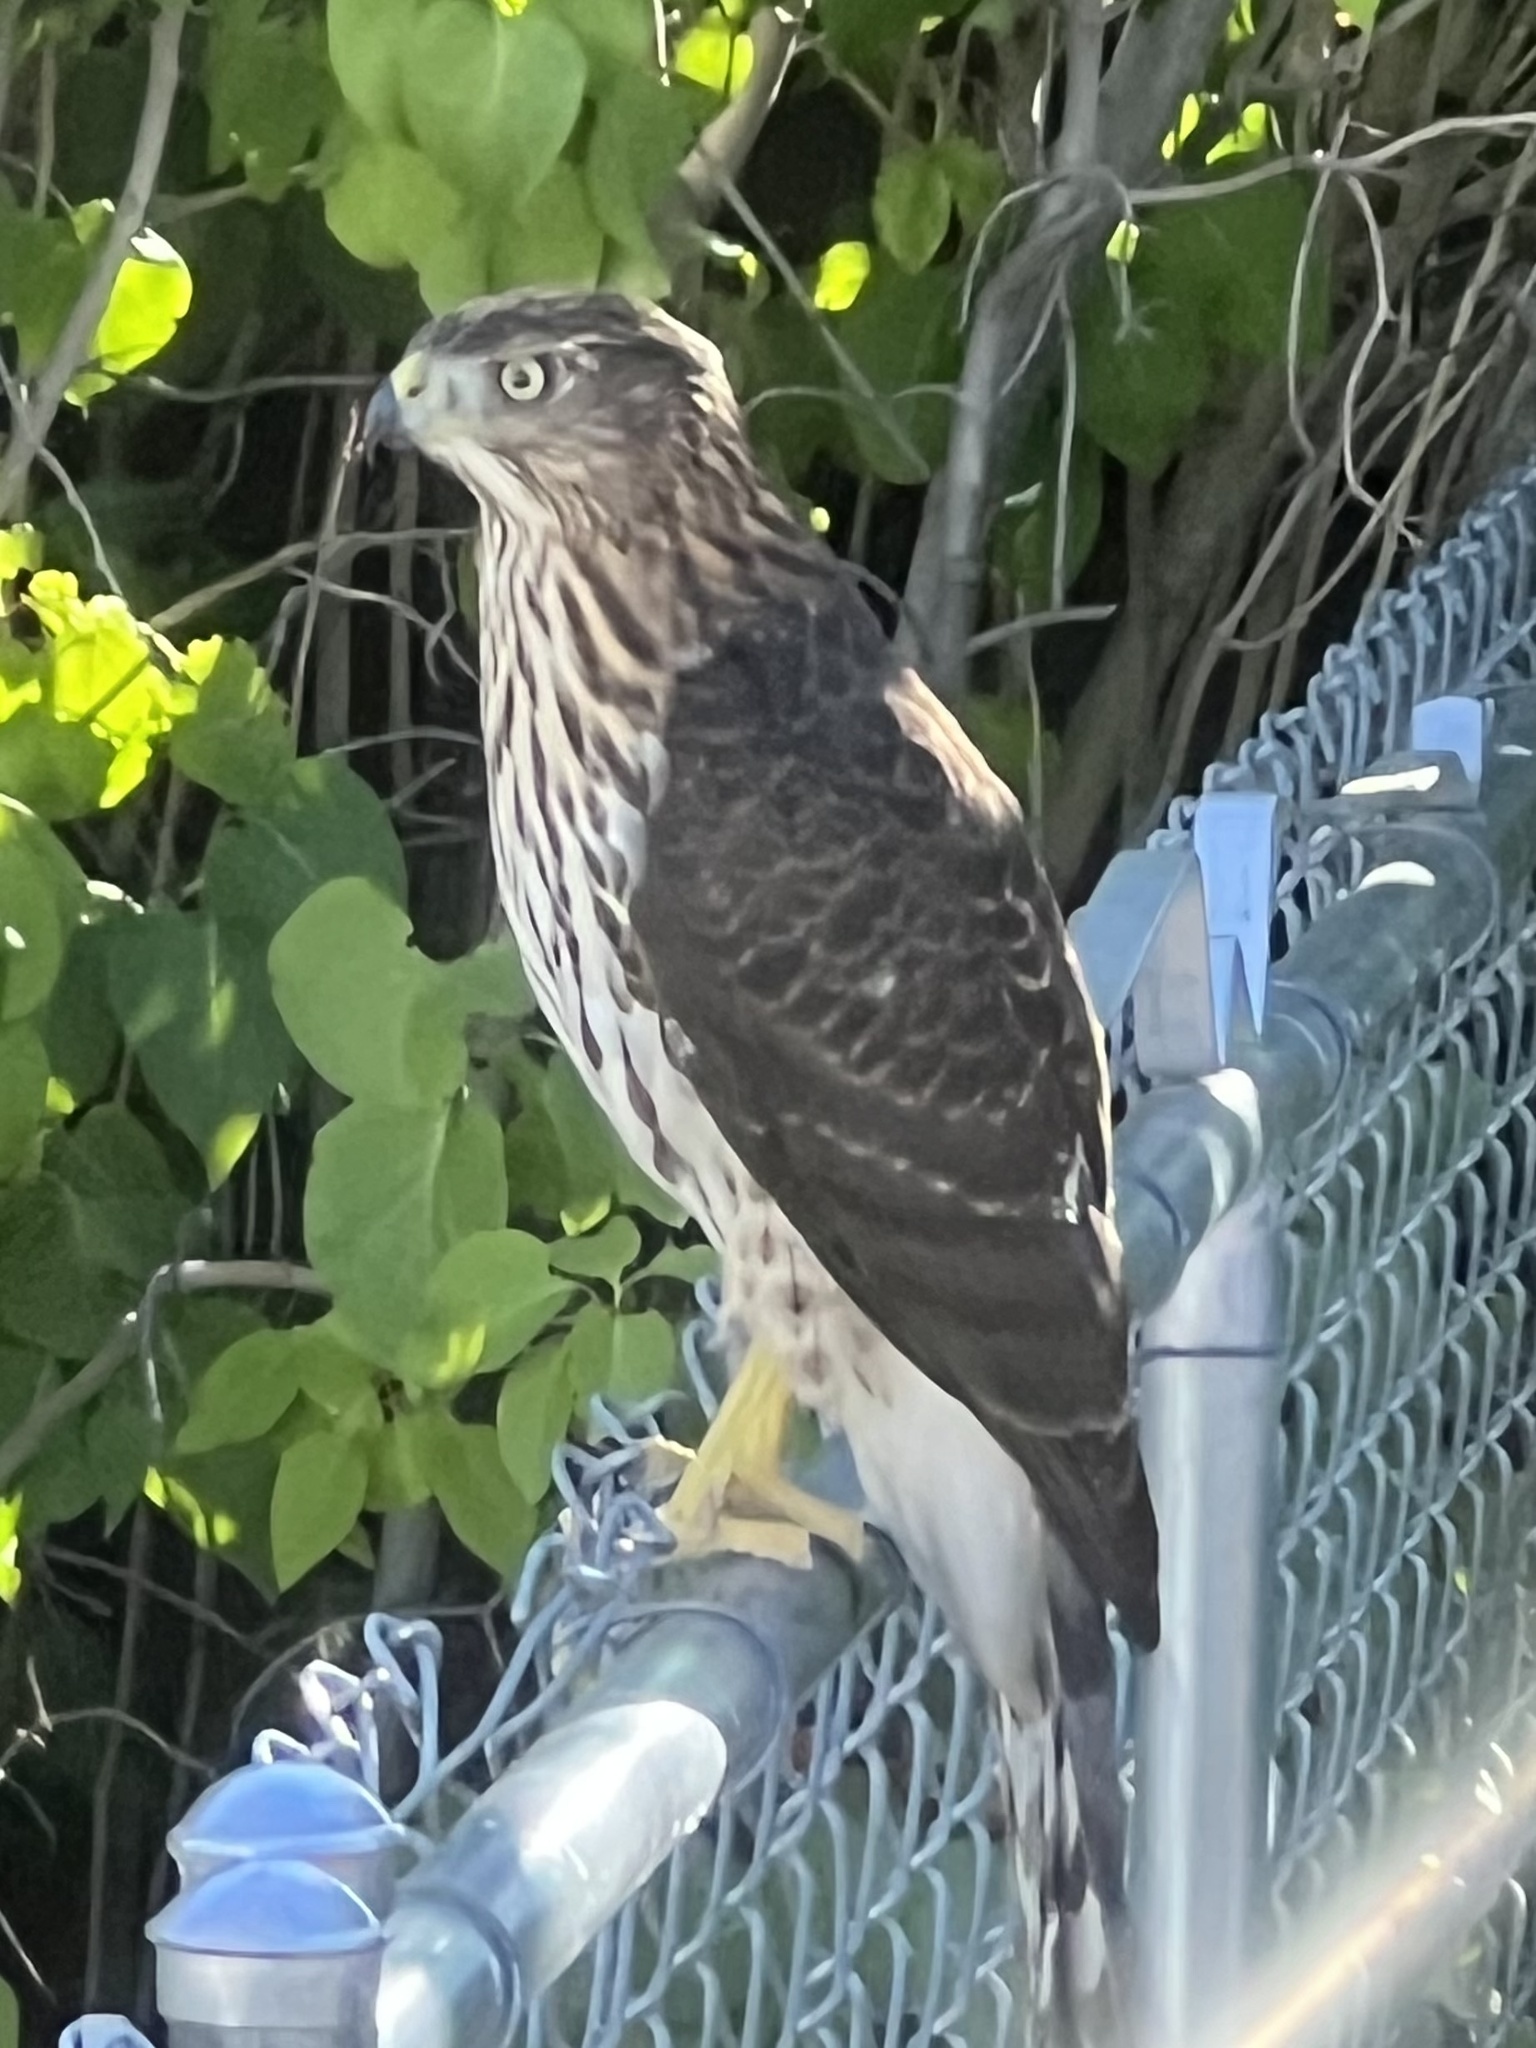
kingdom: Animalia
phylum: Chordata
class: Aves
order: Accipitriformes
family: Accipitridae
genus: Accipiter
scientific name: Accipiter cooperii
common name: Cooper's hawk
